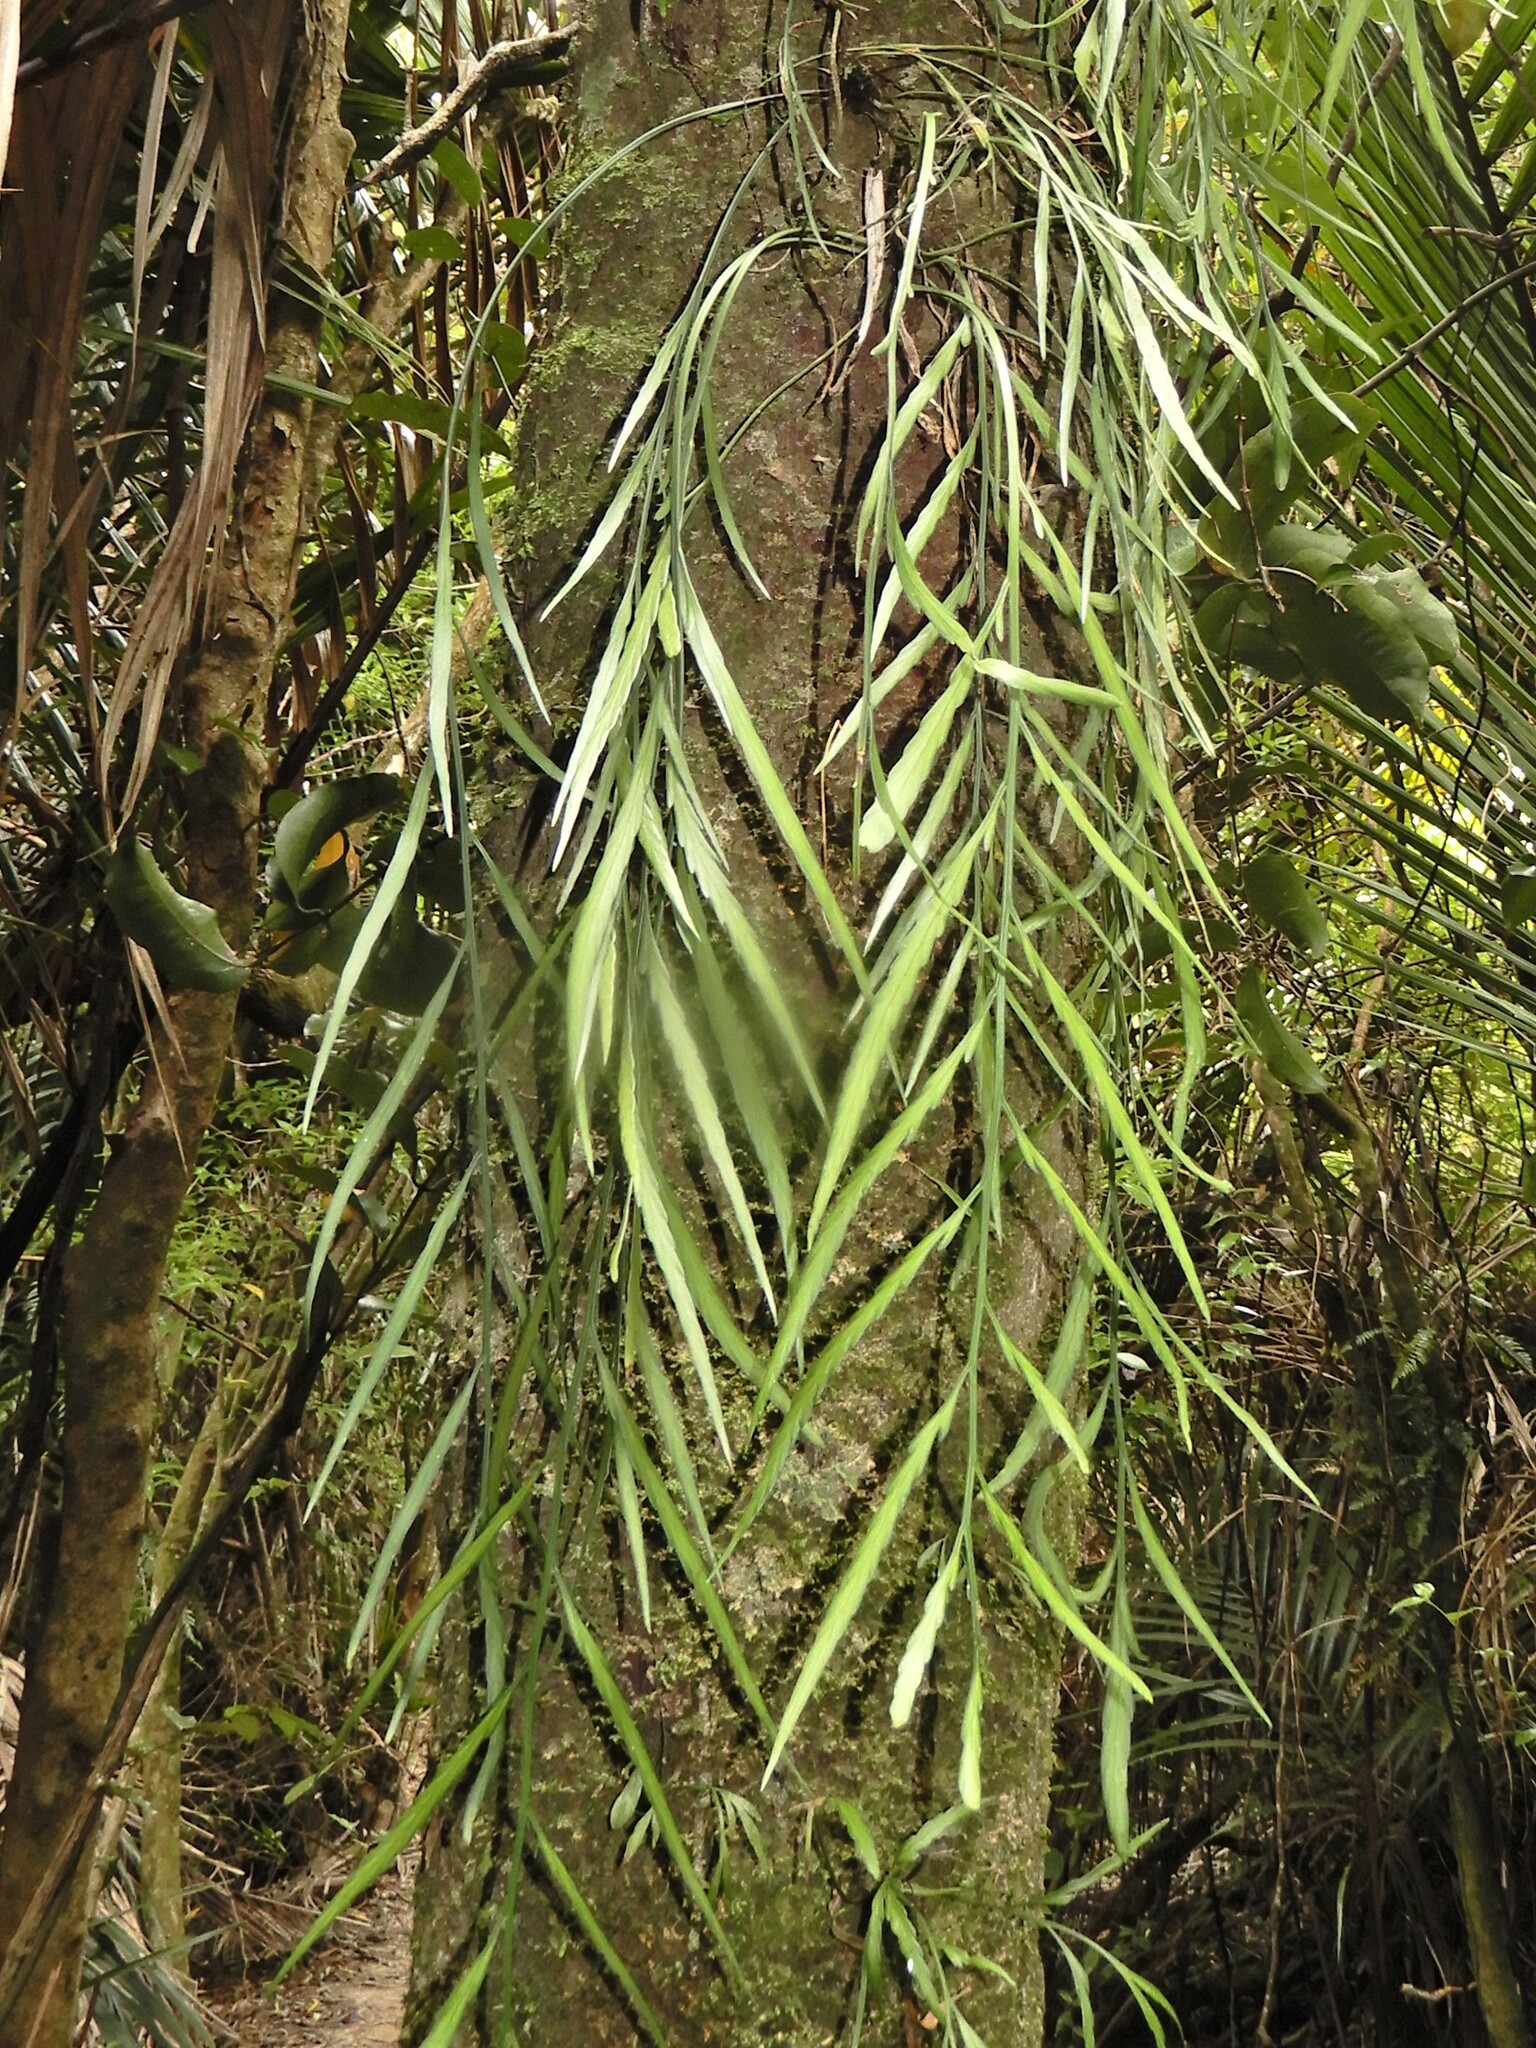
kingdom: Plantae
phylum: Tracheophyta
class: Polypodiopsida
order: Polypodiales
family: Aspleniaceae
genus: Asplenium
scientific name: Asplenium flaccidum
